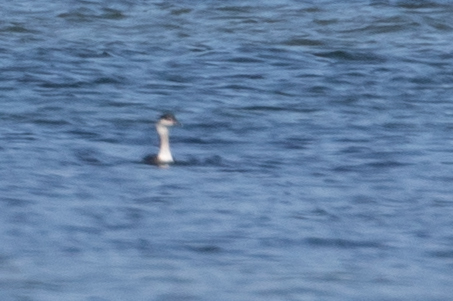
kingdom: Animalia
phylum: Chordata
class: Aves
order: Podicipediformes
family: Podicipedidae
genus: Podiceps
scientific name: Podiceps auritus
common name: Horned grebe
